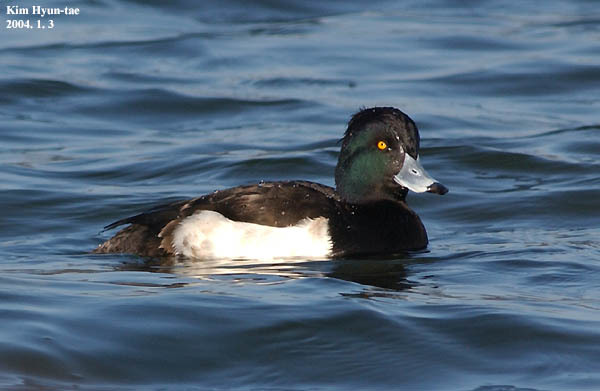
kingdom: Animalia
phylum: Chordata
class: Aves
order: Anseriformes
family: Anatidae
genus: Aythya
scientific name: Aythya fuligula
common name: Tufted duck
